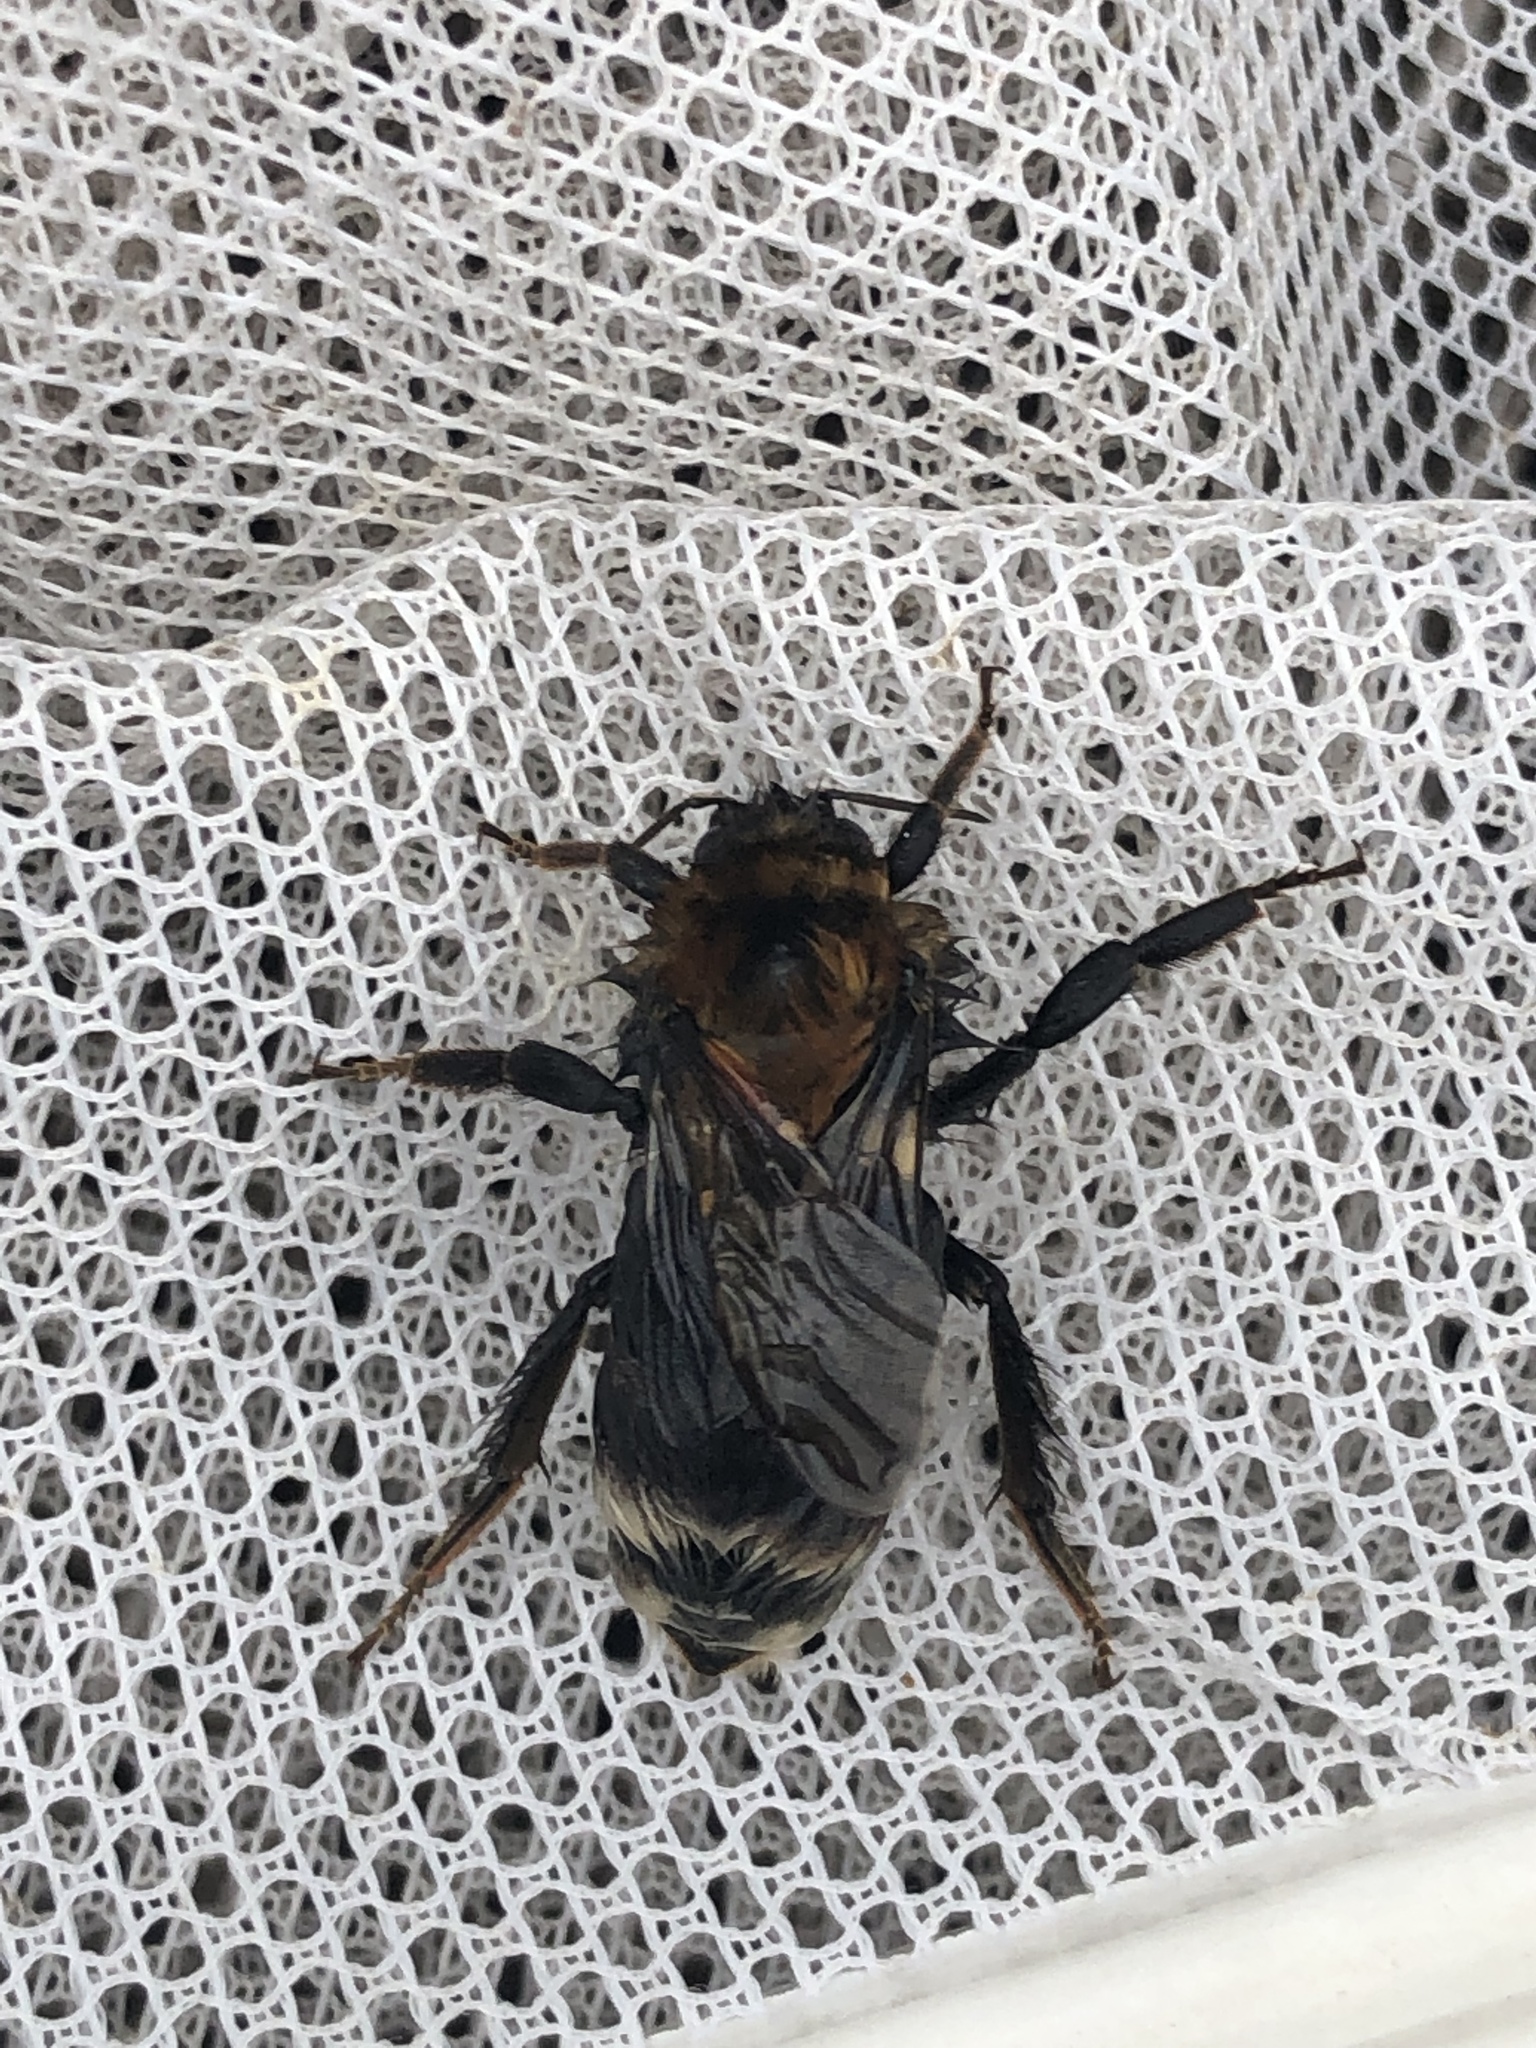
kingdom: Animalia
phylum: Arthropoda
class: Insecta
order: Hymenoptera
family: Apidae
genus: Bombus
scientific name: Bombus hypnorum
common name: New garden bumblebee
